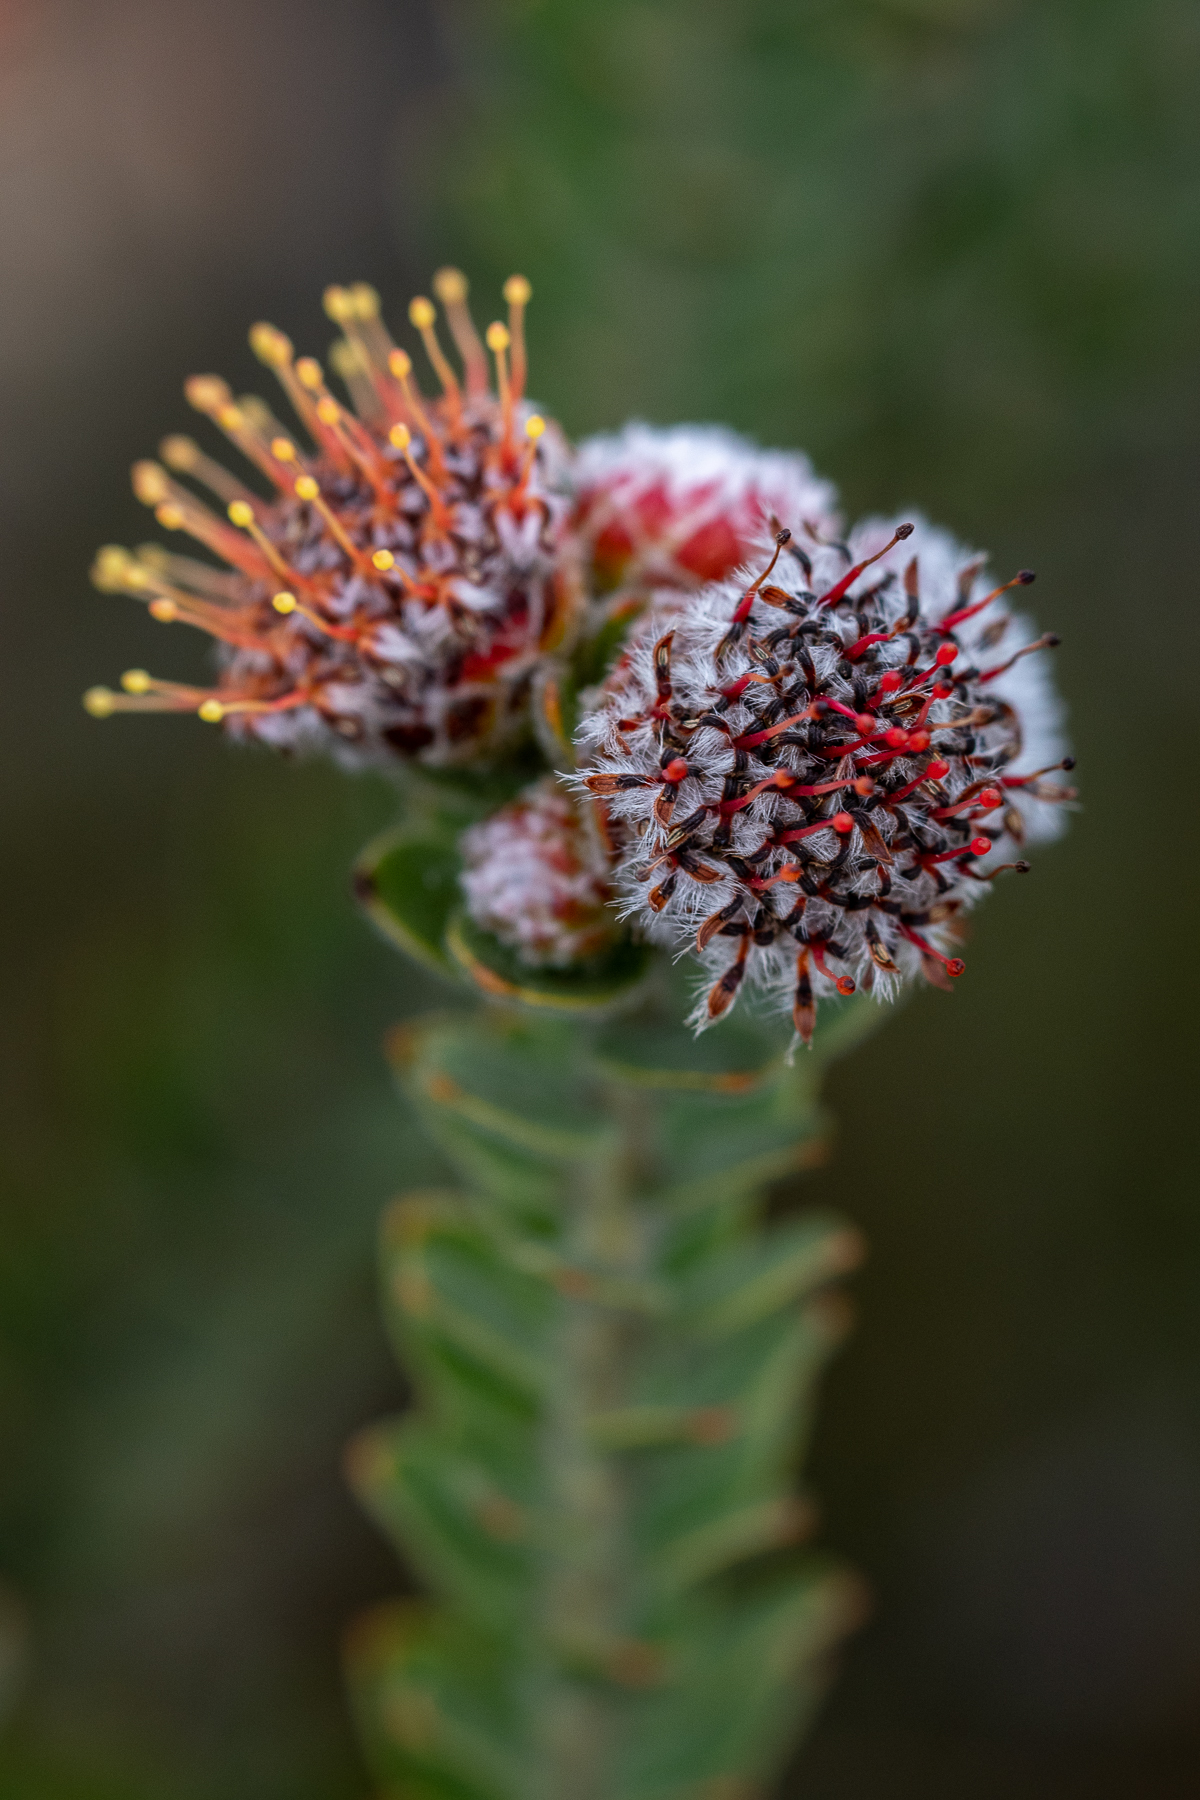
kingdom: Plantae
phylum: Tracheophyta
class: Magnoliopsida
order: Proteales
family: Proteaceae
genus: Leucospermum
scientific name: Leucospermum truncatulum
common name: Oval-leaf pincushion
